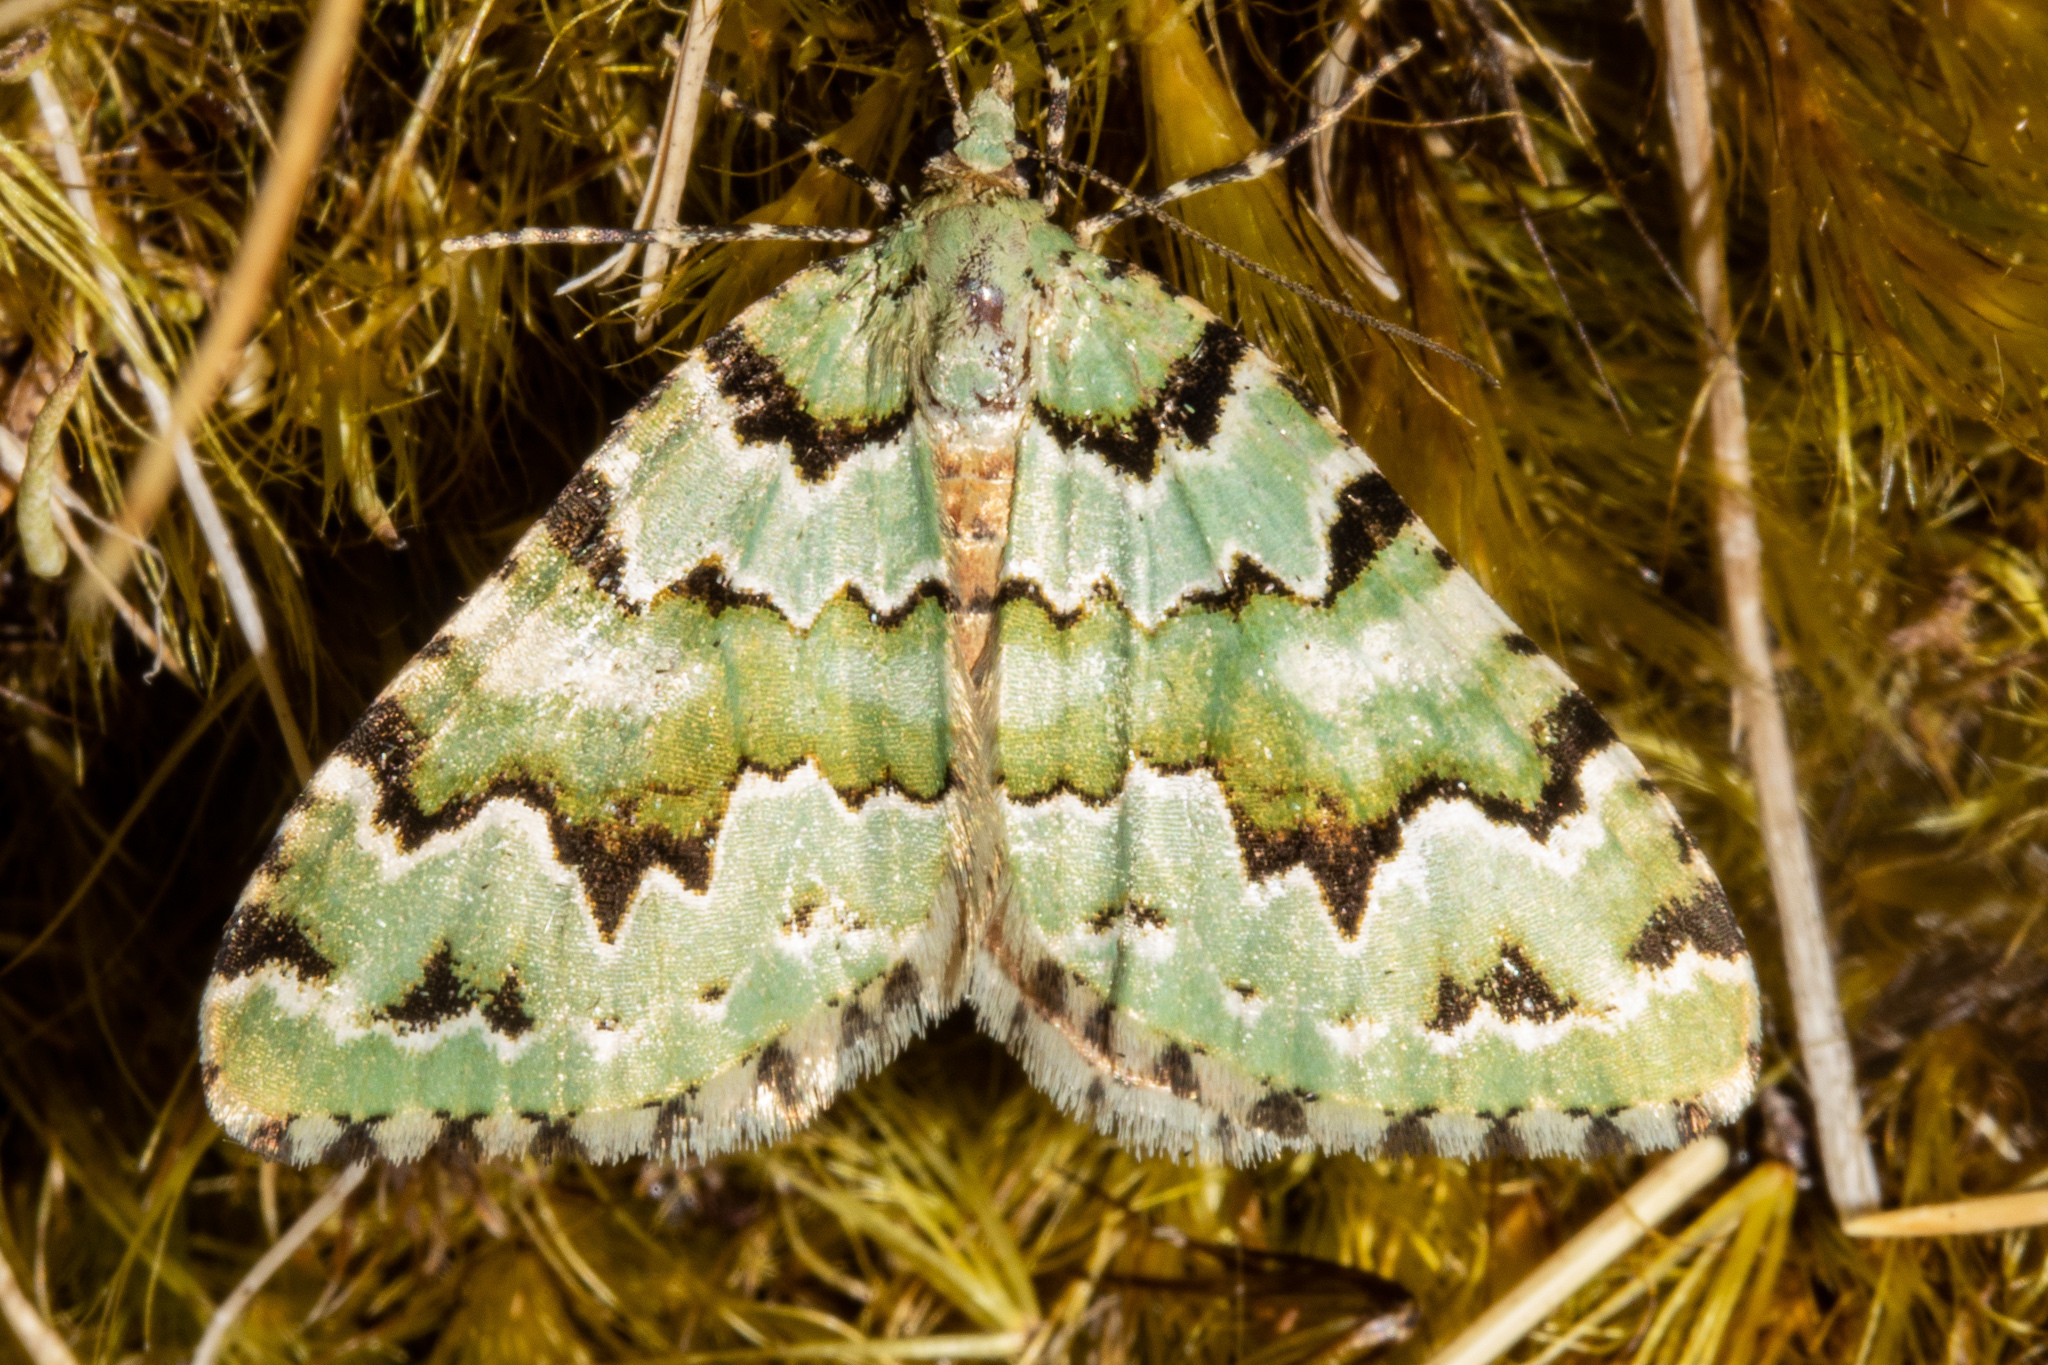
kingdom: Animalia
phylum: Arthropoda
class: Insecta
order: Lepidoptera
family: Geometridae
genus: Asaphodes
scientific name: Asaphodes adonis
